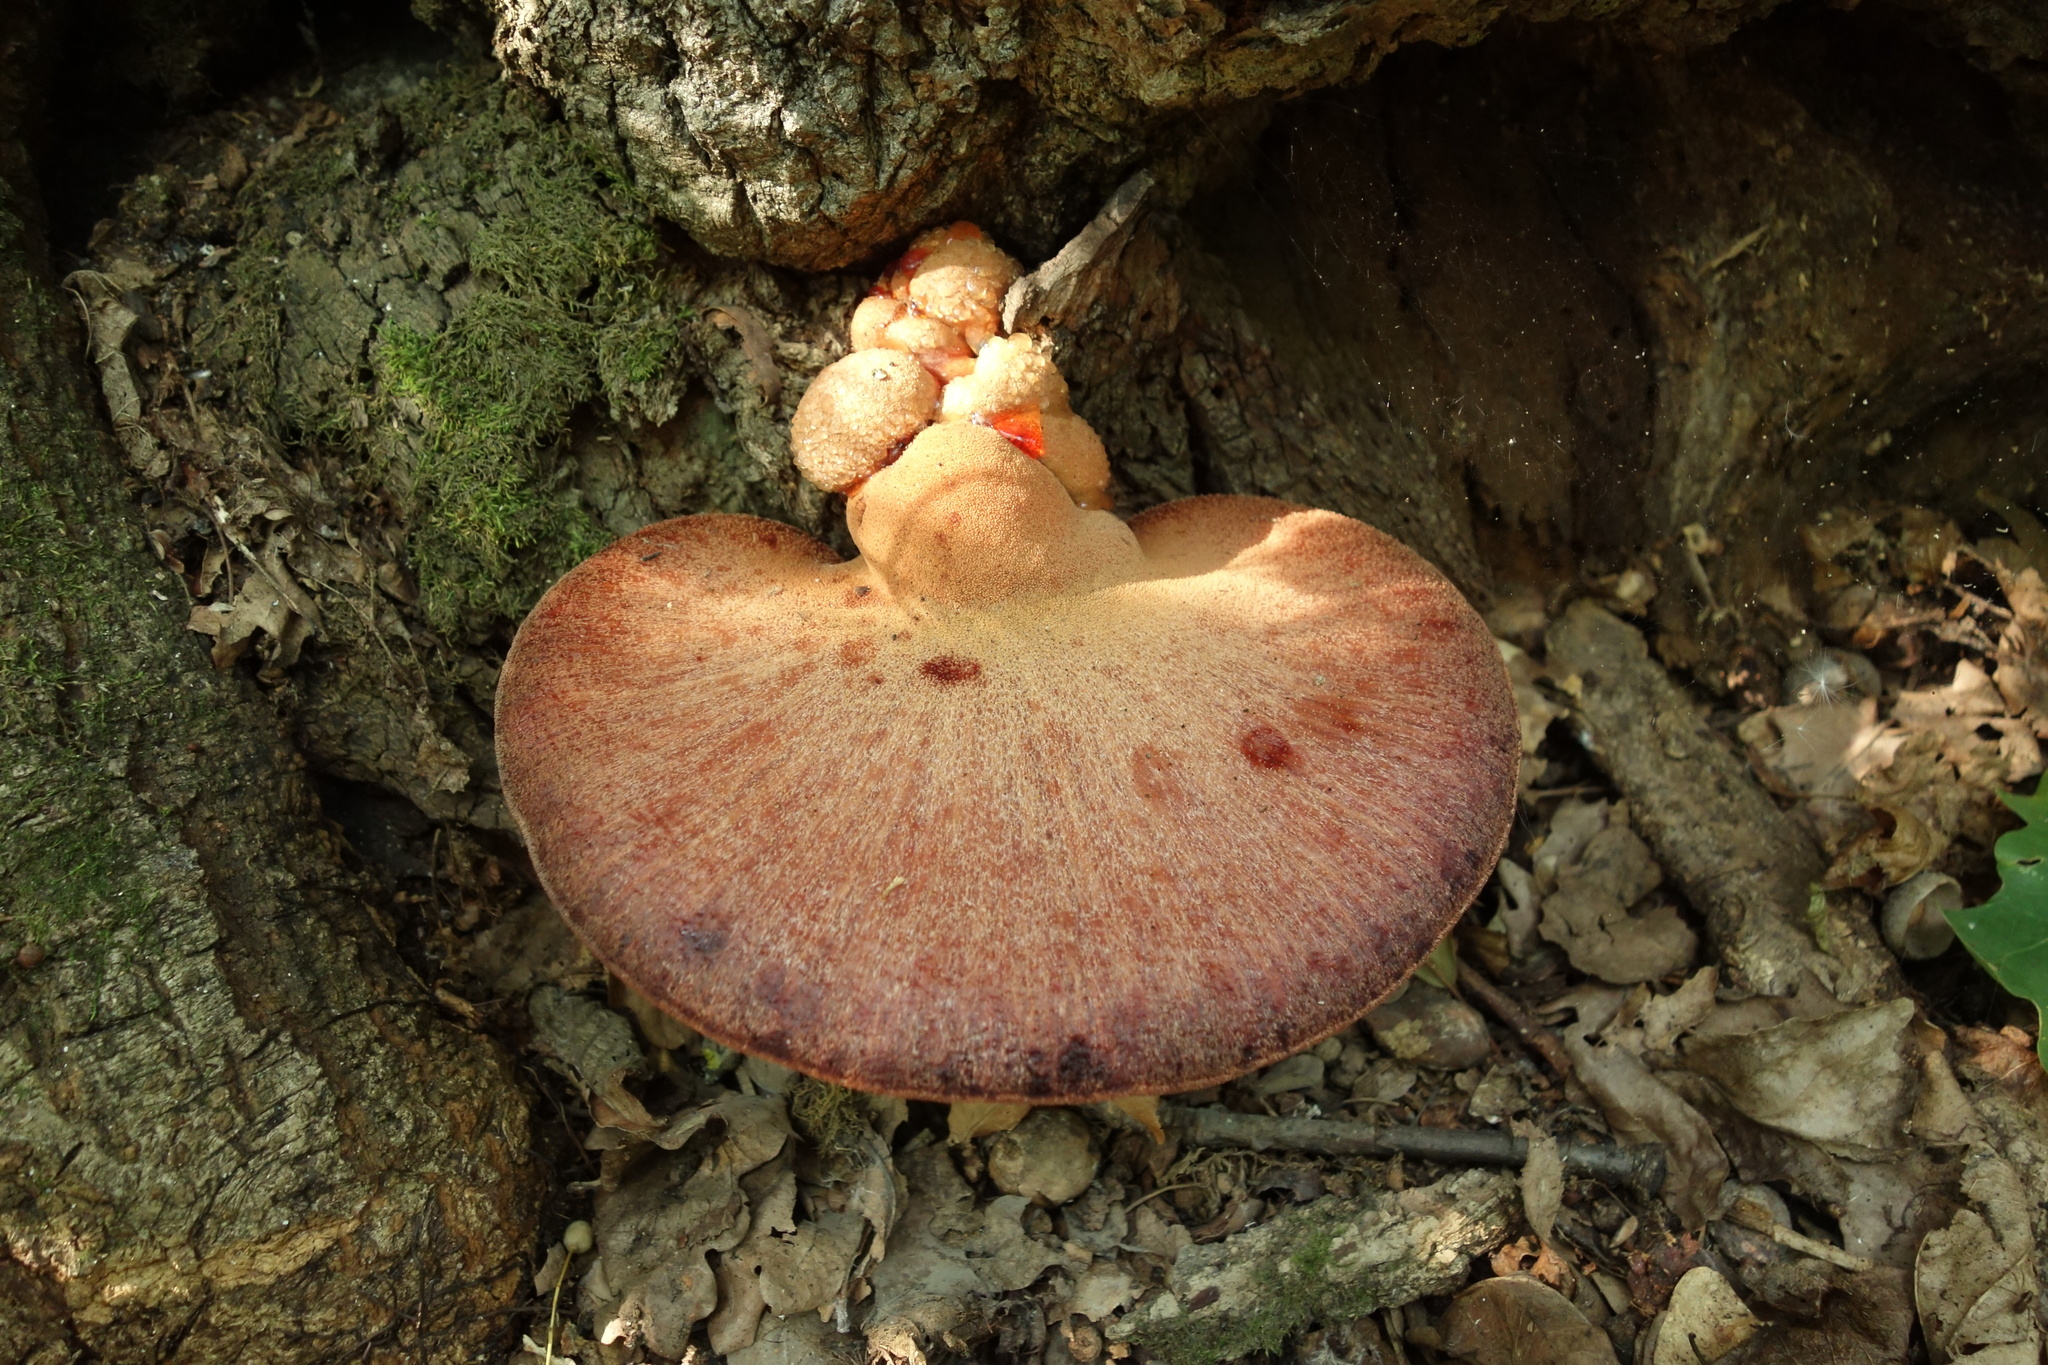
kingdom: Fungi
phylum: Basidiomycota
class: Agaricomycetes
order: Agaricales
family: Fistulinaceae
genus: Fistulina
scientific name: Fistulina hepatica
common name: Beef-steak fungus
